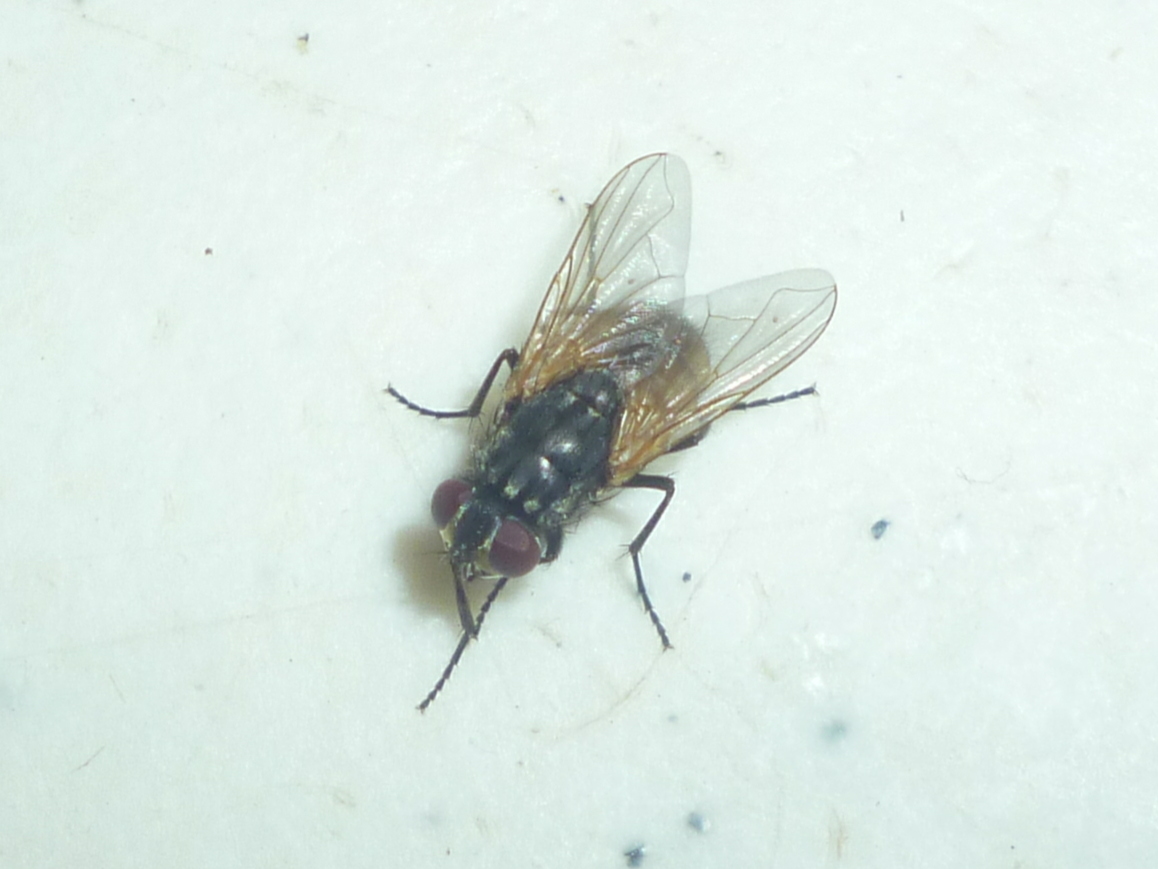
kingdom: Animalia
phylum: Arthropoda
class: Insecta
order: Diptera
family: Muscidae
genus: Musca
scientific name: Musca domestica
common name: House fly
